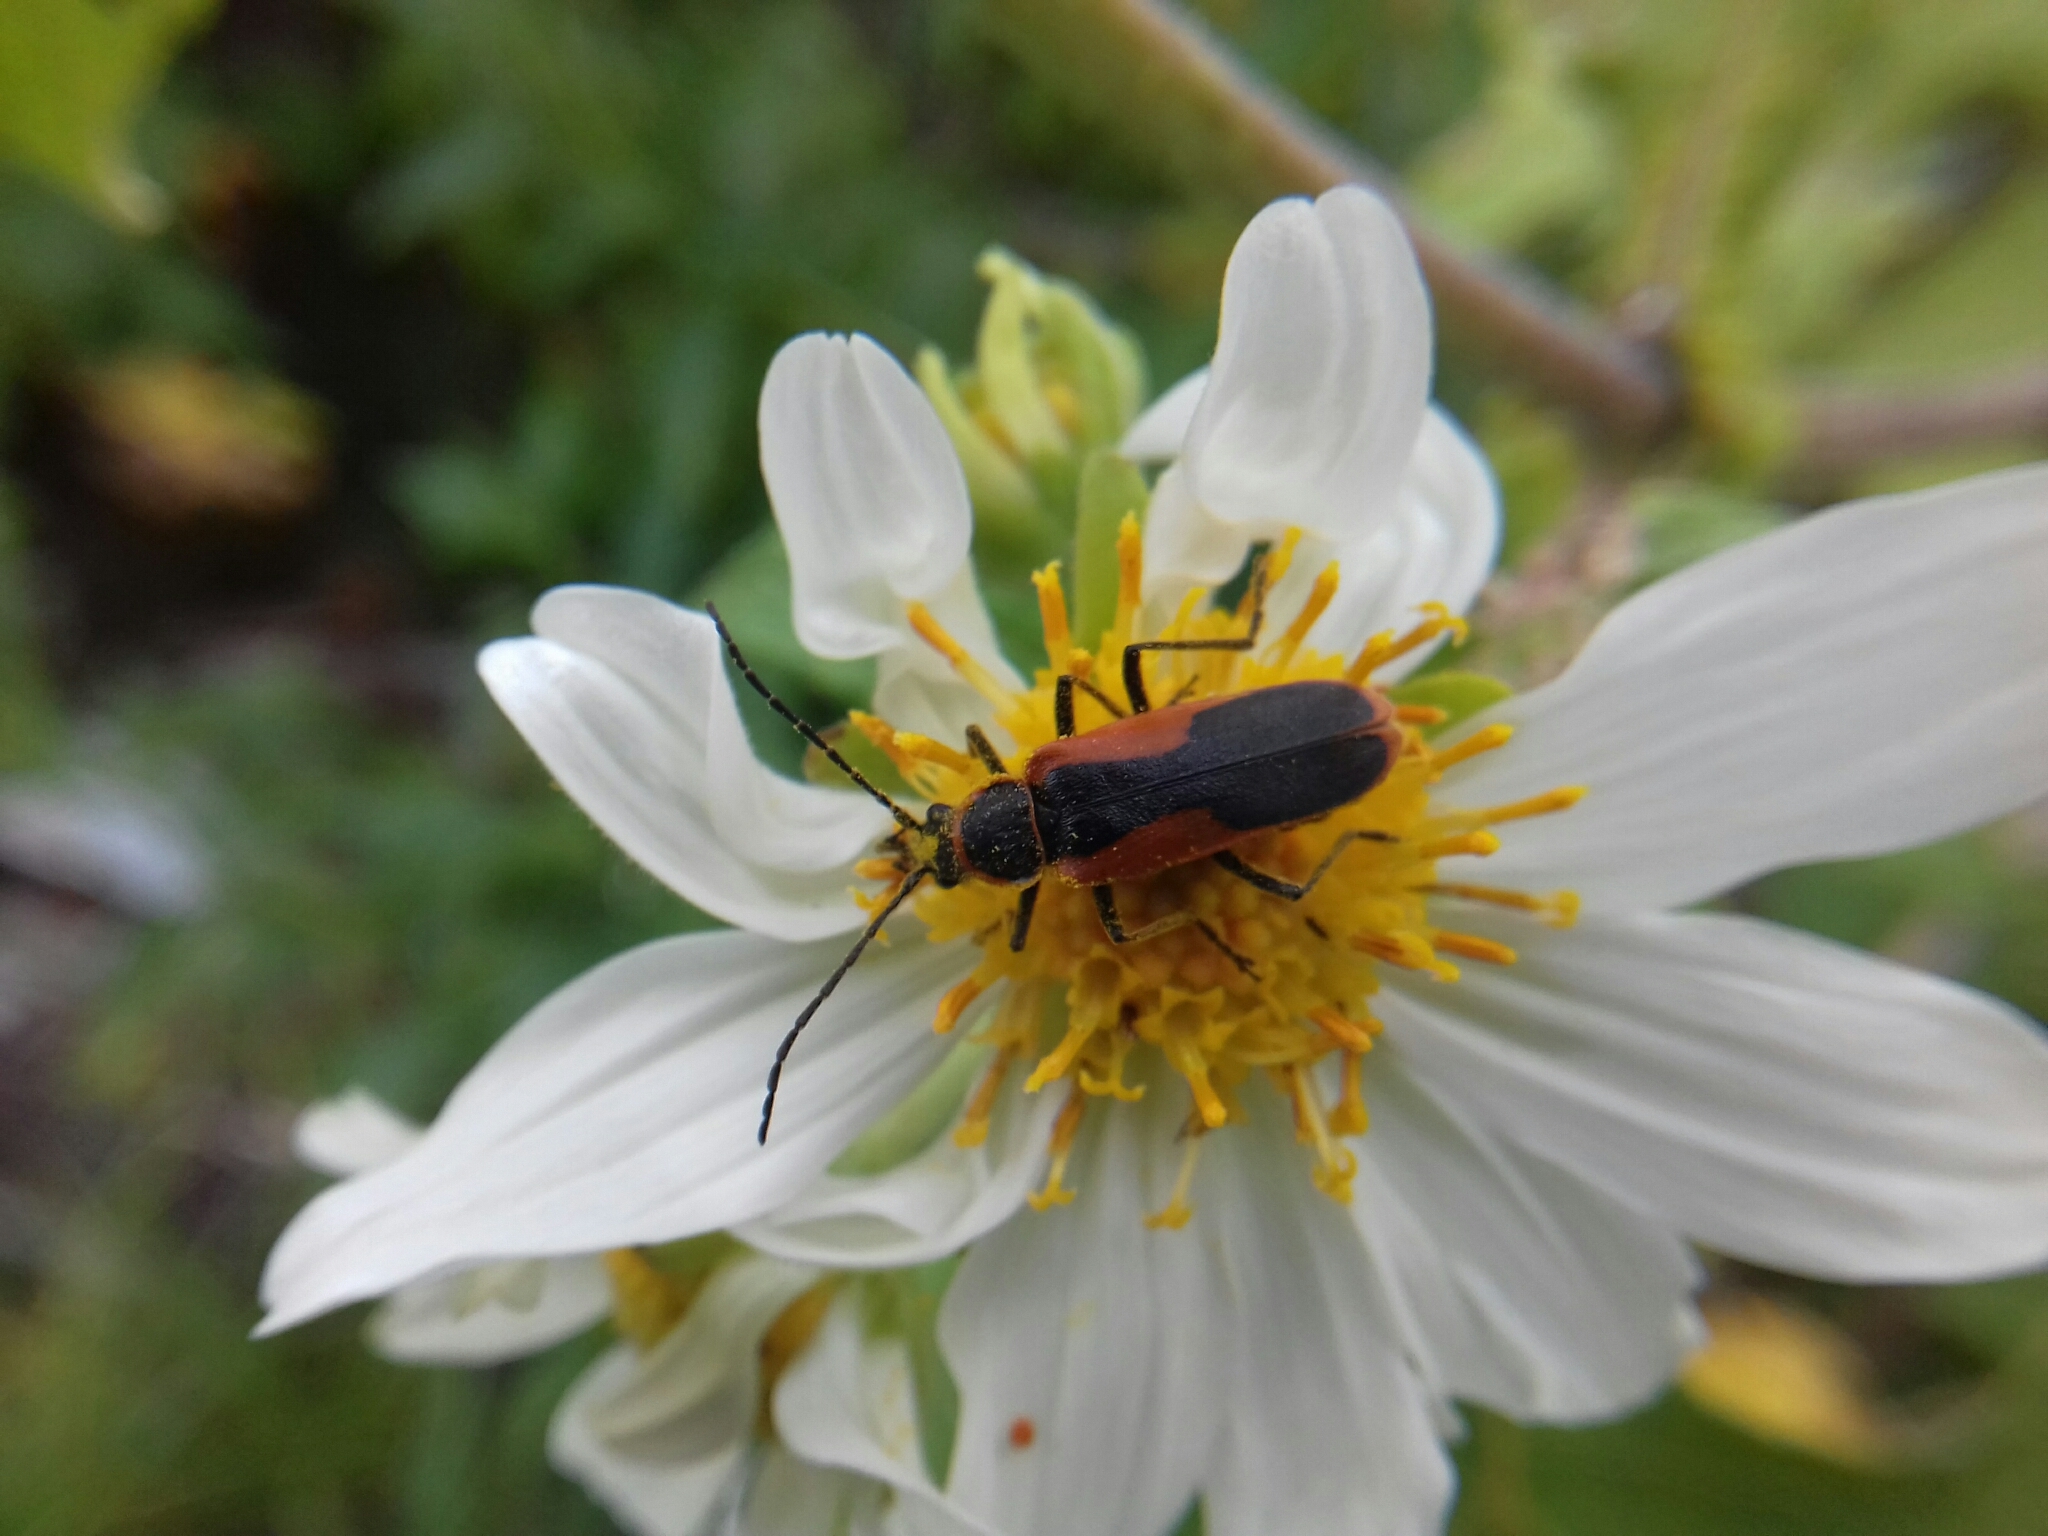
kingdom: Animalia
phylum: Arthropoda
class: Insecta
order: Coleoptera
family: Cantharidae
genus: Chauliognathus
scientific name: Chauliognathus limbicollis
